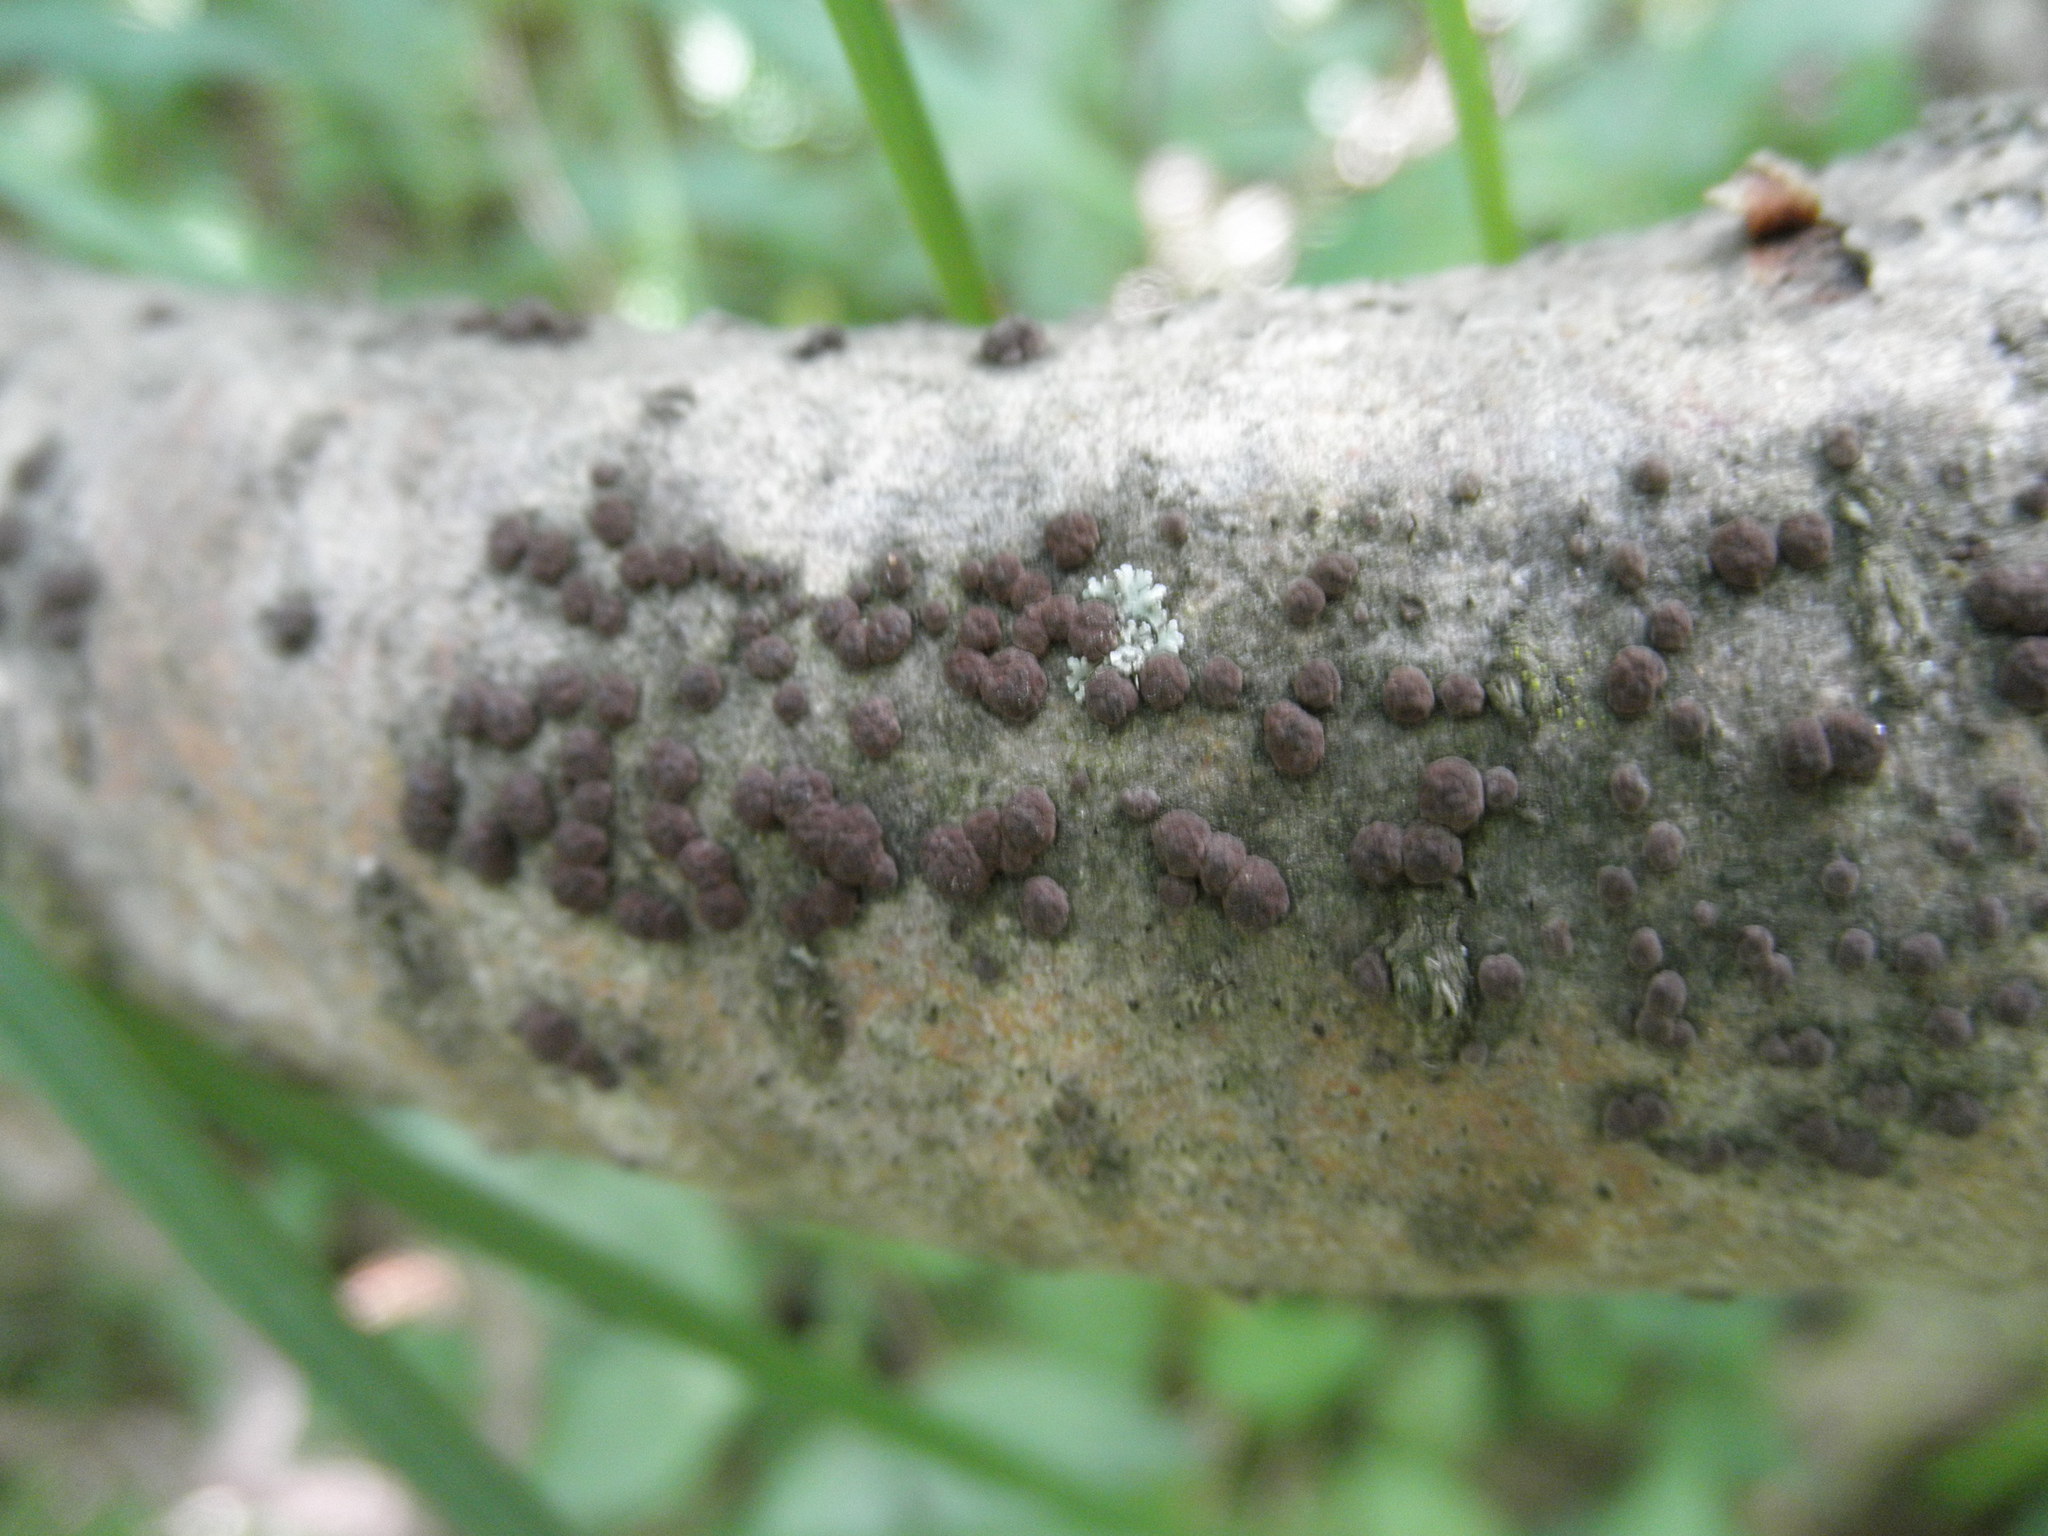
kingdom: Fungi
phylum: Ascomycota
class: Sordariomycetes
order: Xylariales
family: Hypoxylaceae
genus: Hypoxylon
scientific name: Hypoxylon fuscum
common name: Hazel woodwart
